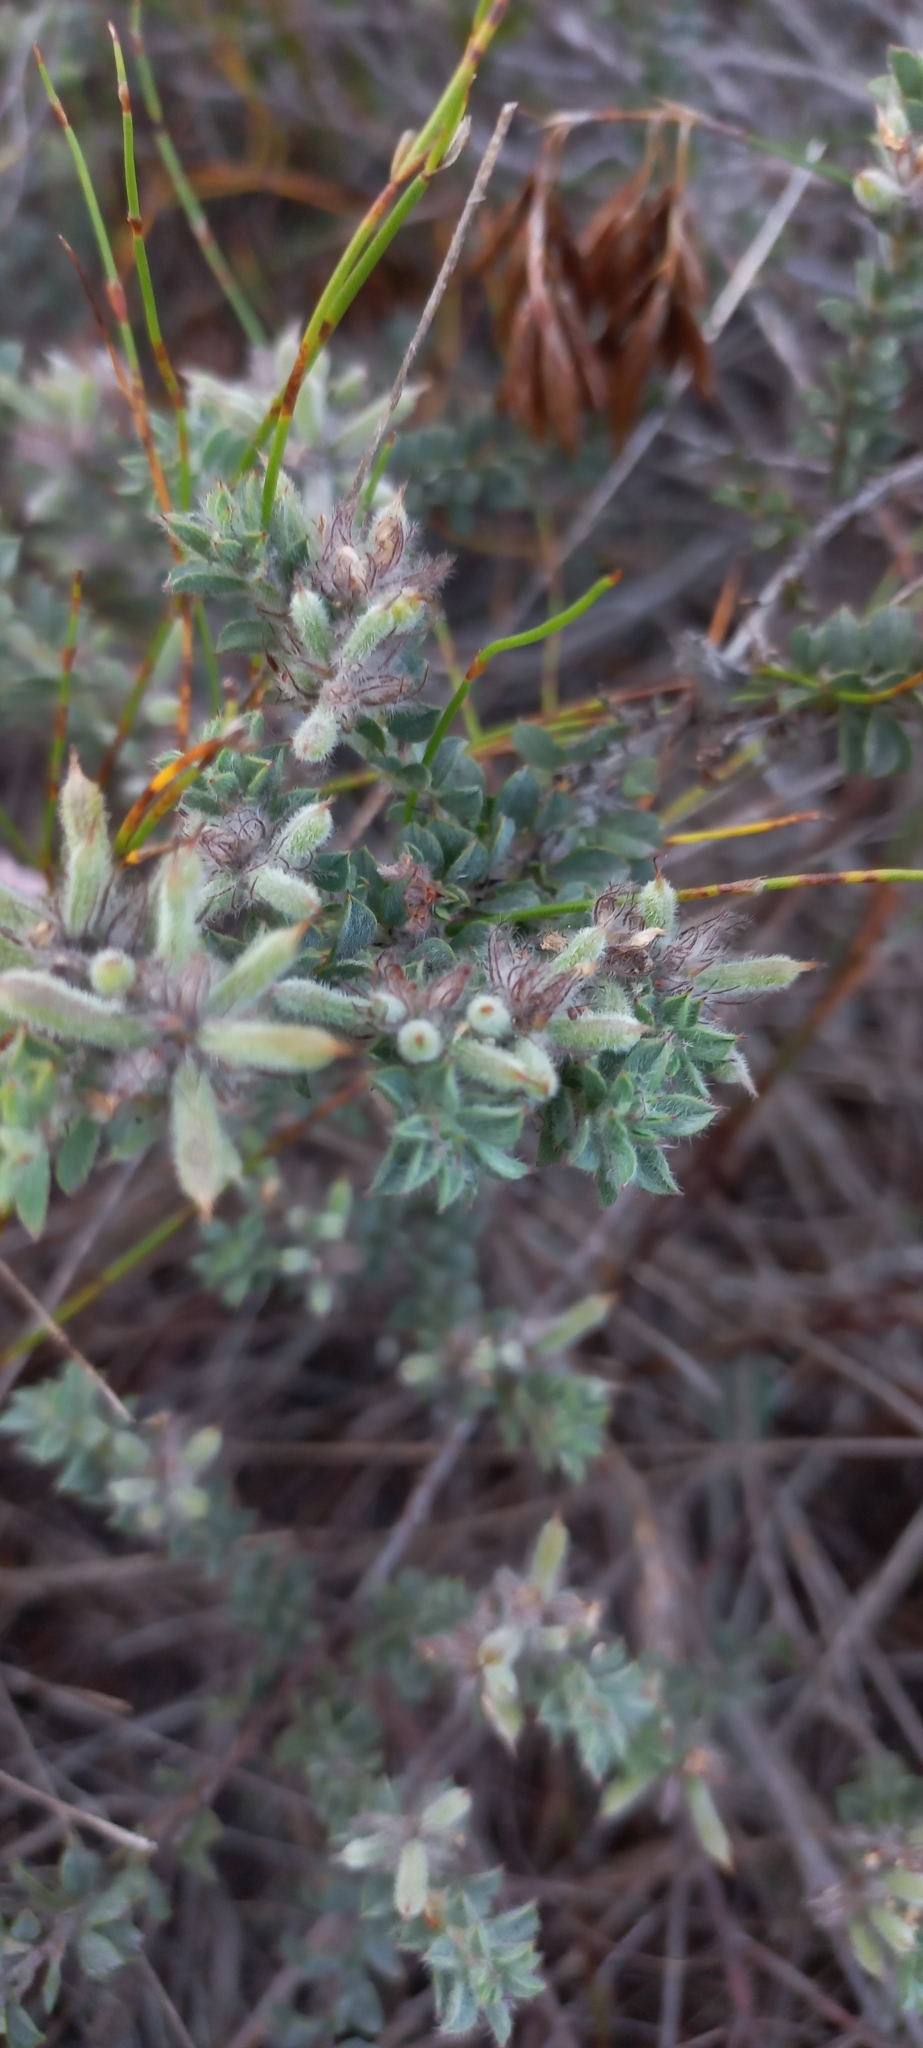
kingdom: Plantae
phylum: Tracheophyta
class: Magnoliopsida
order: Fabales
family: Fabaceae
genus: Indigofera
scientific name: Indigofera glomerata
